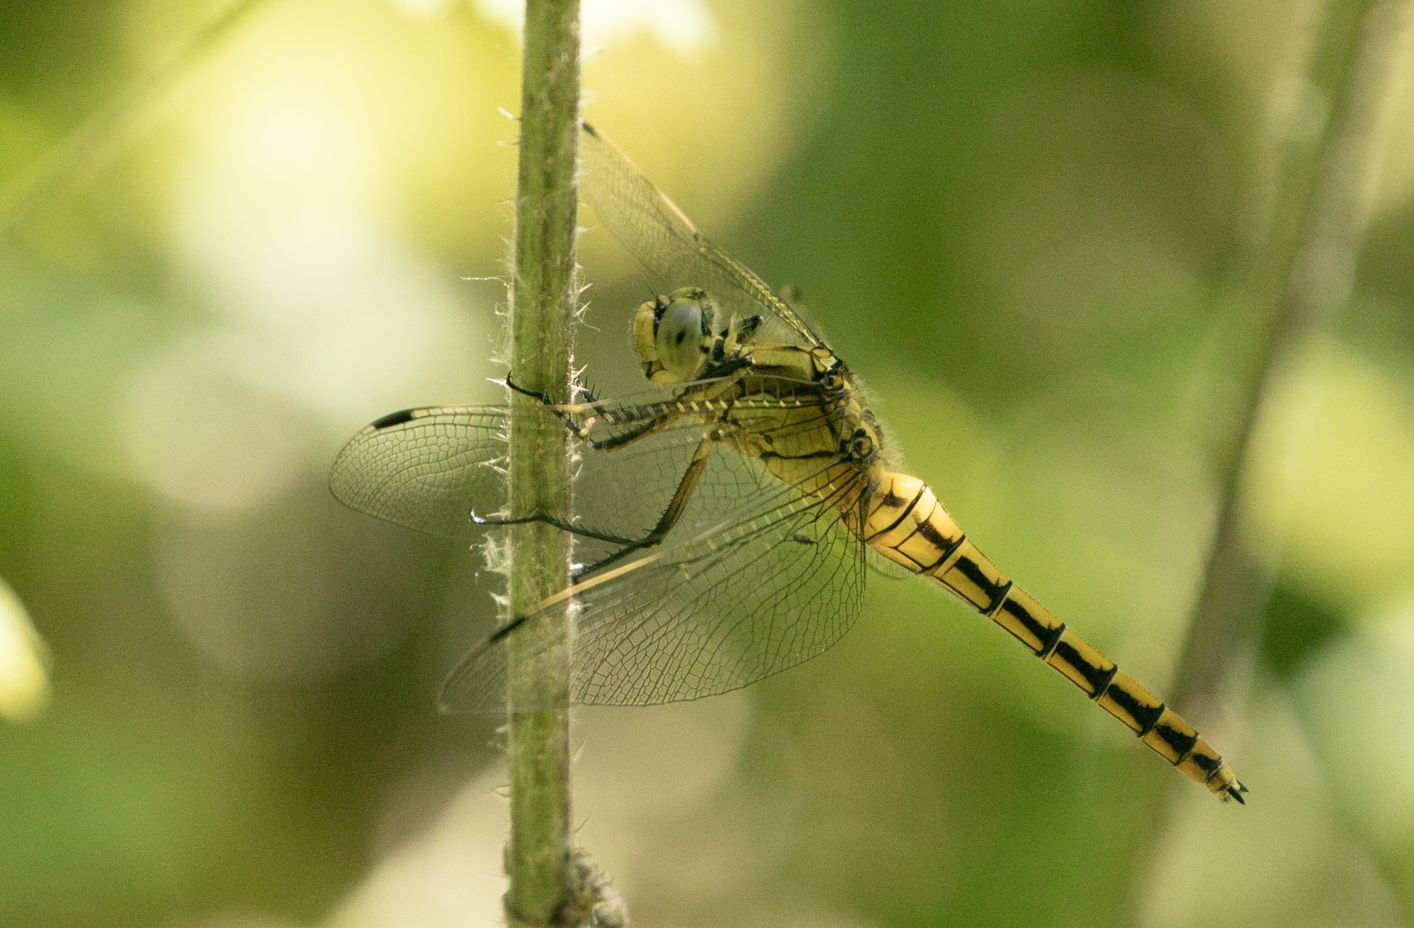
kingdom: Animalia
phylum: Arthropoda
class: Insecta
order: Odonata
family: Libellulidae
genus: Orthetrum
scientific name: Orthetrum cancellatum
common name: Black-tailed skimmer
